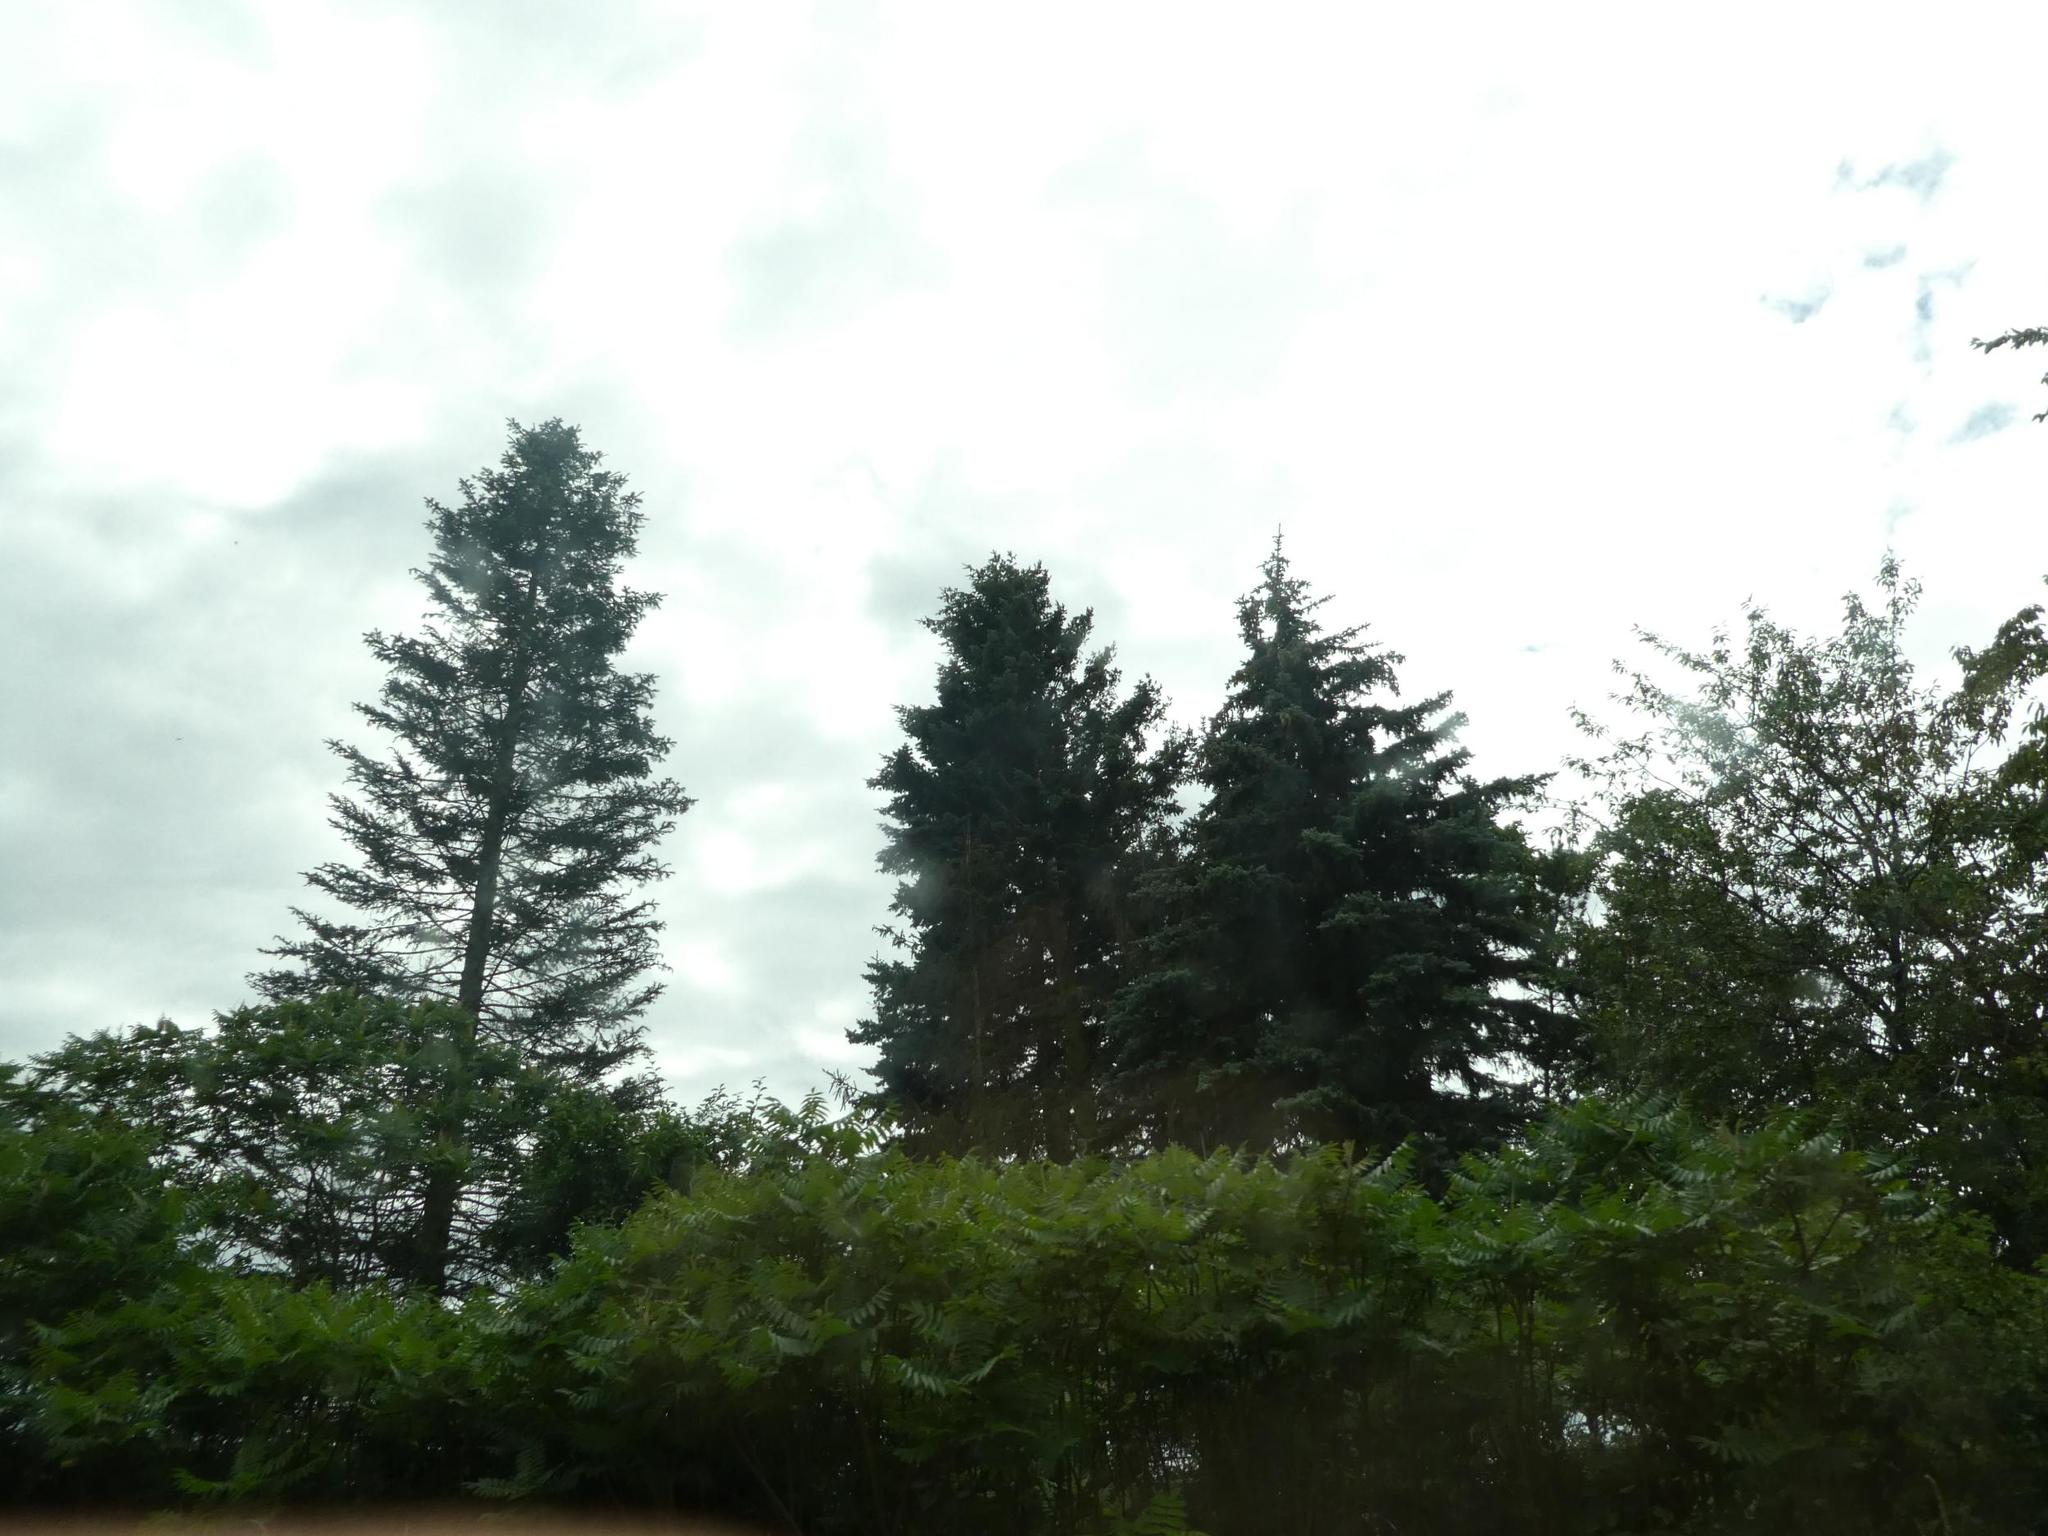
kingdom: Plantae
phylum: Tracheophyta
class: Pinopsida
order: Pinales
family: Pinaceae
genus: Picea
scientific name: Picea abies
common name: Norway spruce
